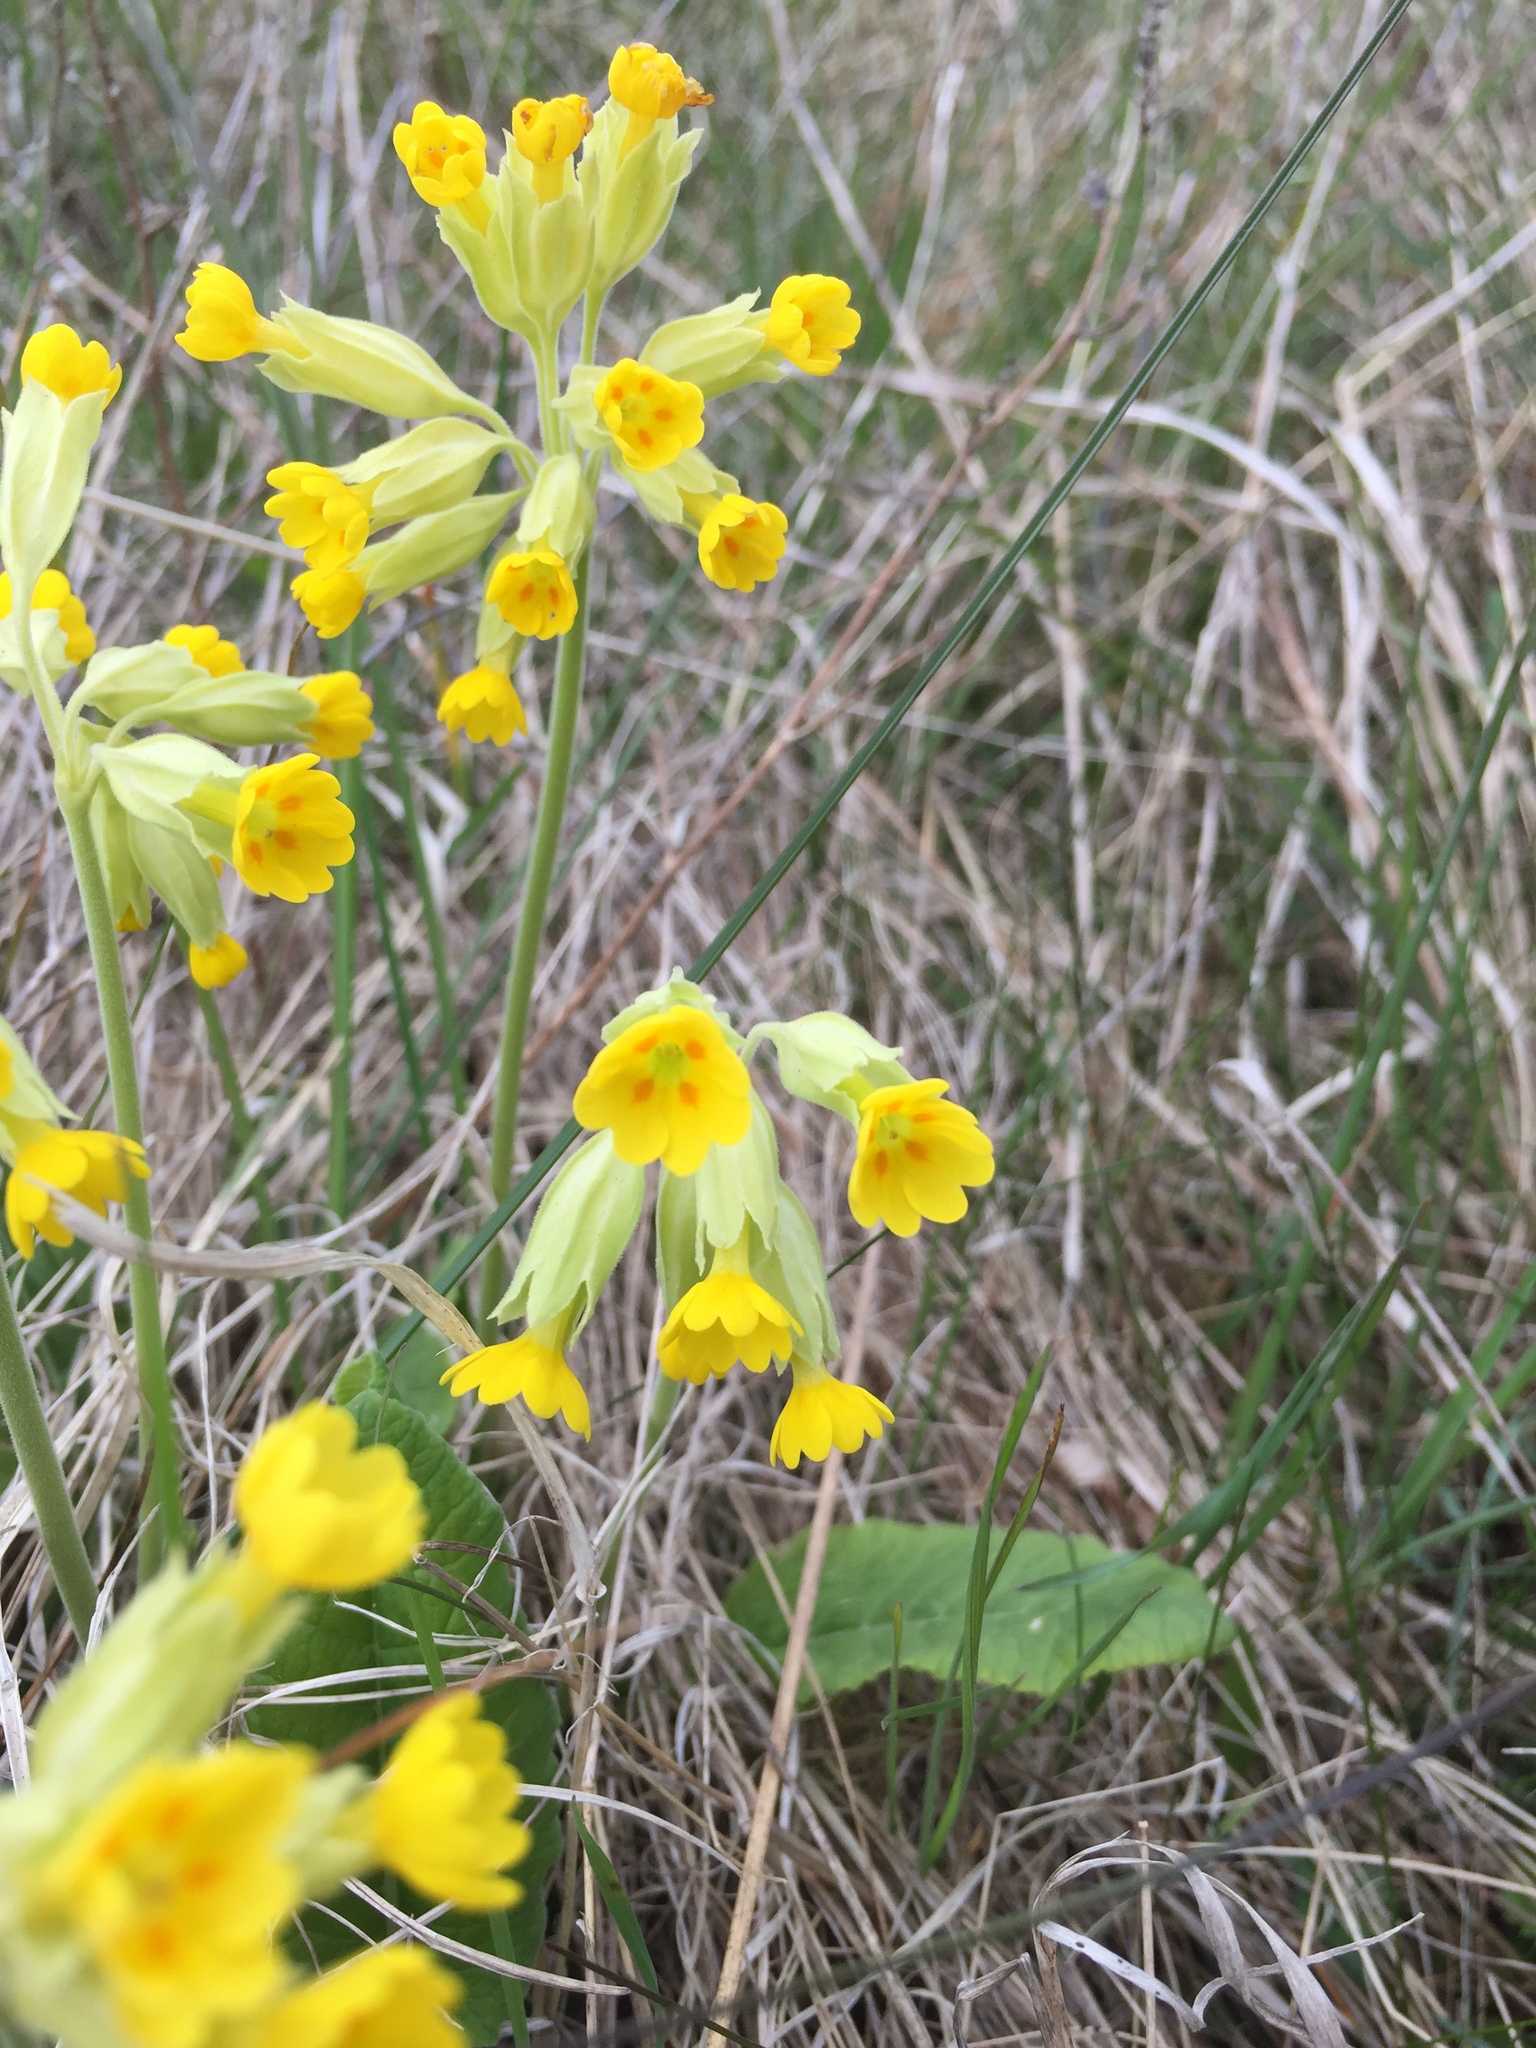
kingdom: Plantae
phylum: Tracheophyta
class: Magnoliopsida
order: Ericales
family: Primulaceae
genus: Primula
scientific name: Primula veris
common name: Cowslip
